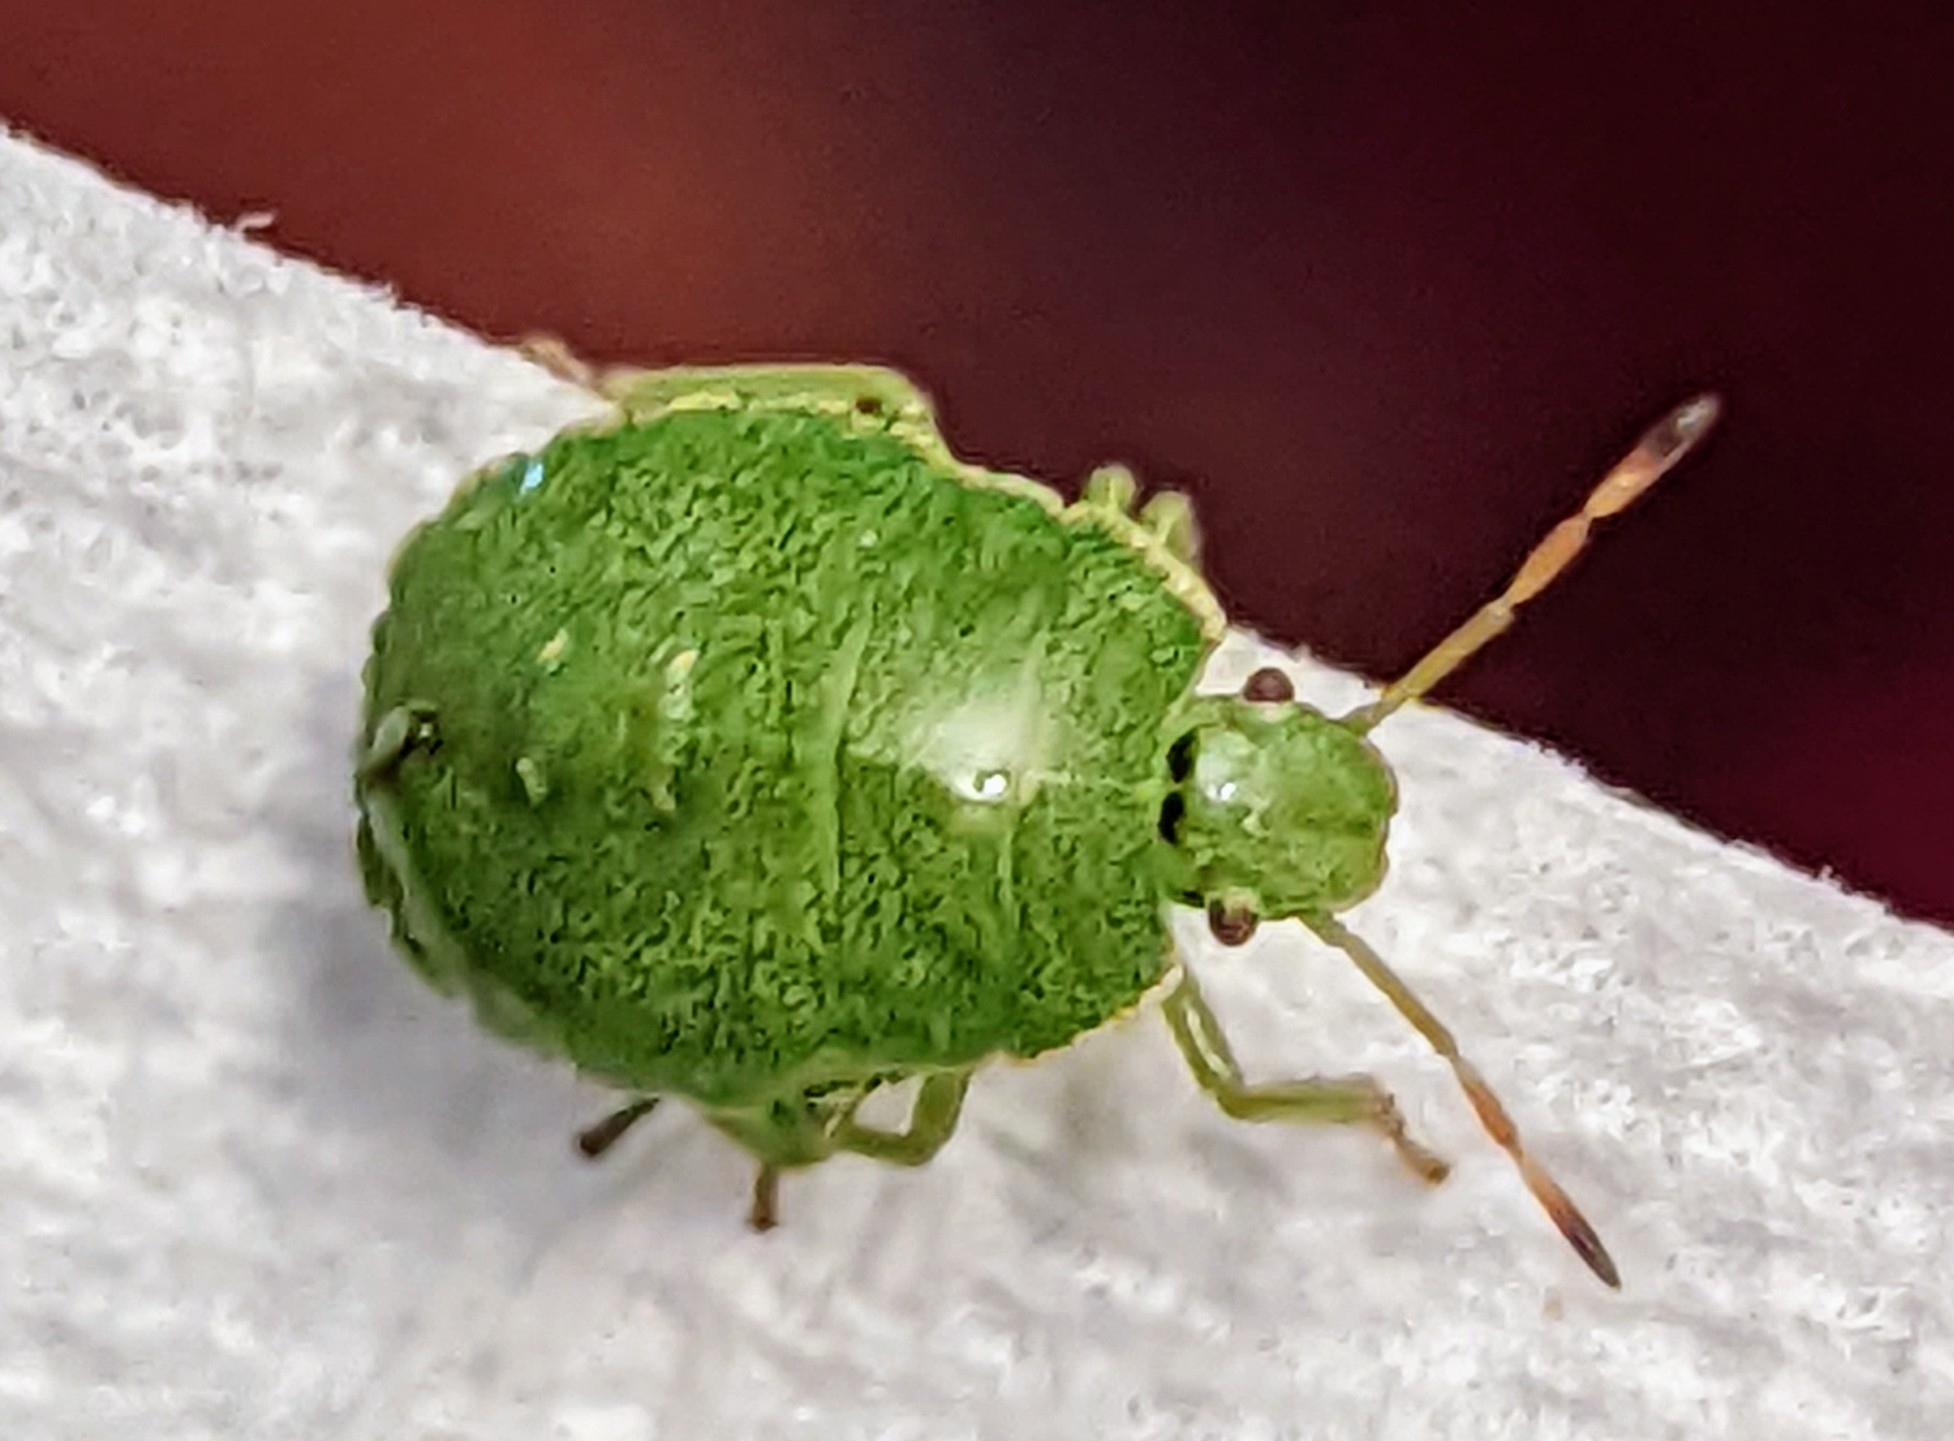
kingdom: Animalia
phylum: Arthropoda
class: Insecta
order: Hemiptera
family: Pentatomidae
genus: Palomena
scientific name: Palomena prasina
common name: Green shieldbug
